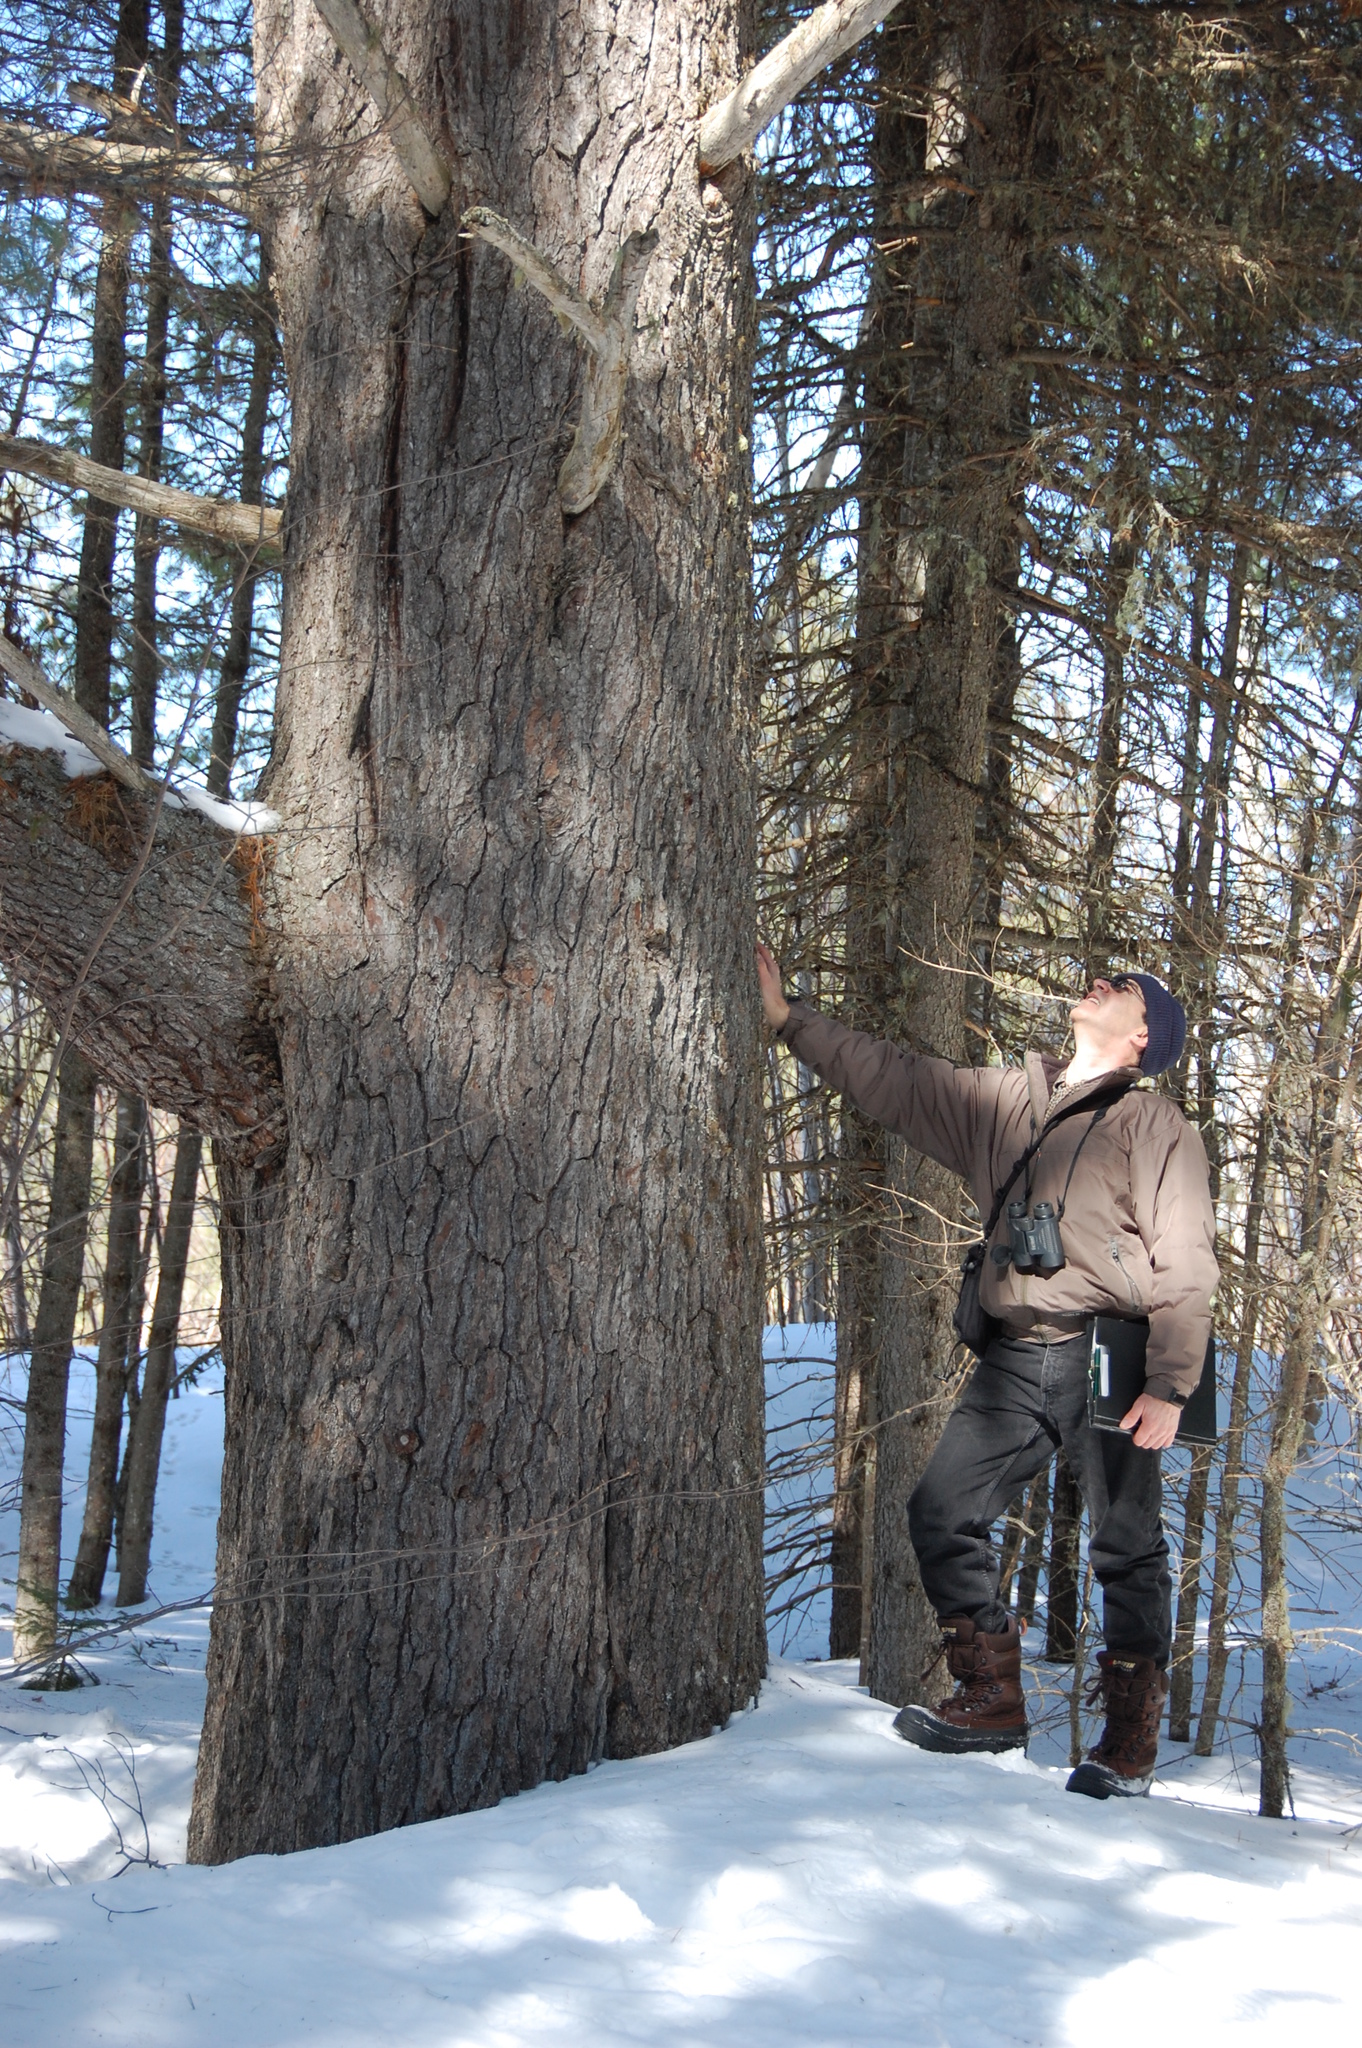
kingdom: Plantae
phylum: Tracheophyta
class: Pinopsida
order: Pinales
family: Pinaceae
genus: Pinus
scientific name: Pinus strobus
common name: Weymouth pine
